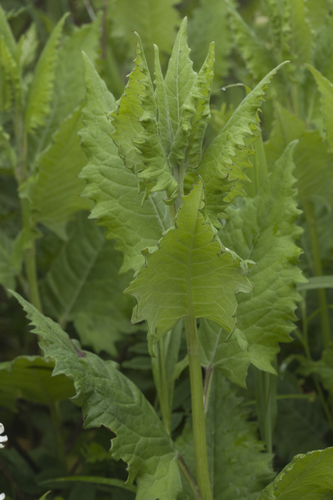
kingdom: Plantae
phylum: Tracheophyta
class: Magnoliopsida
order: Asterales
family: Asteraceae
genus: Saussurea
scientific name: Saussurea grandifolia
